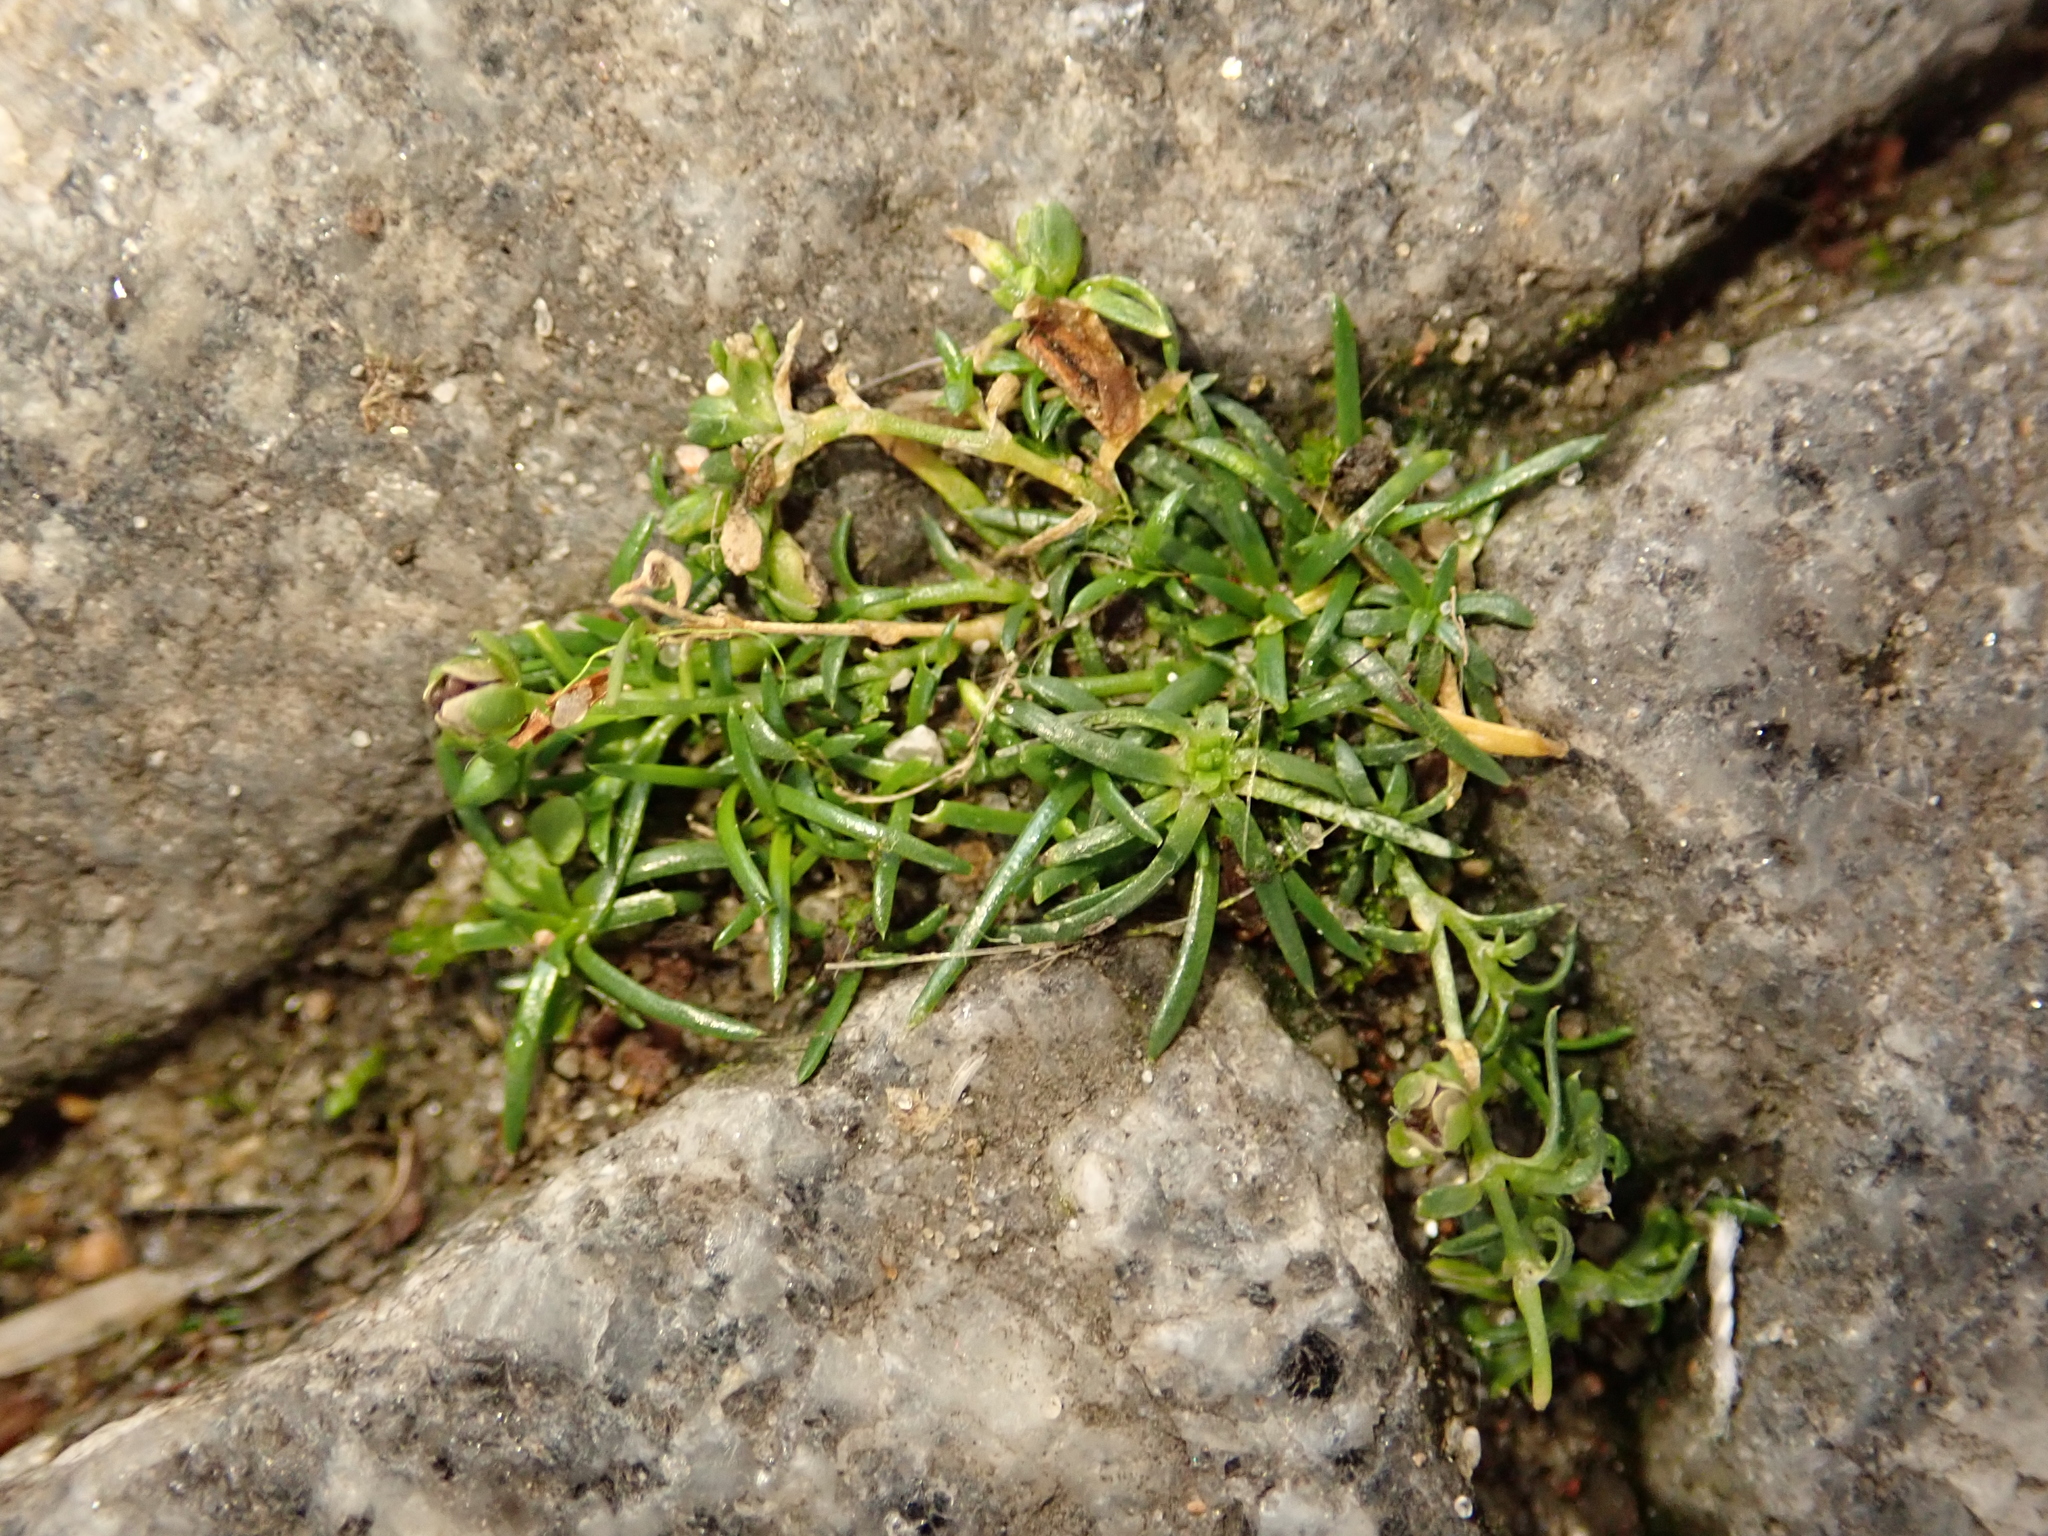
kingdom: Plantae
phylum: Tracheophyta
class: Magnoliopsida
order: Caryophyllales
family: Caryophyllaceae
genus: Sagina
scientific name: Sagina procumbens
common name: Procumbent pearlwort
